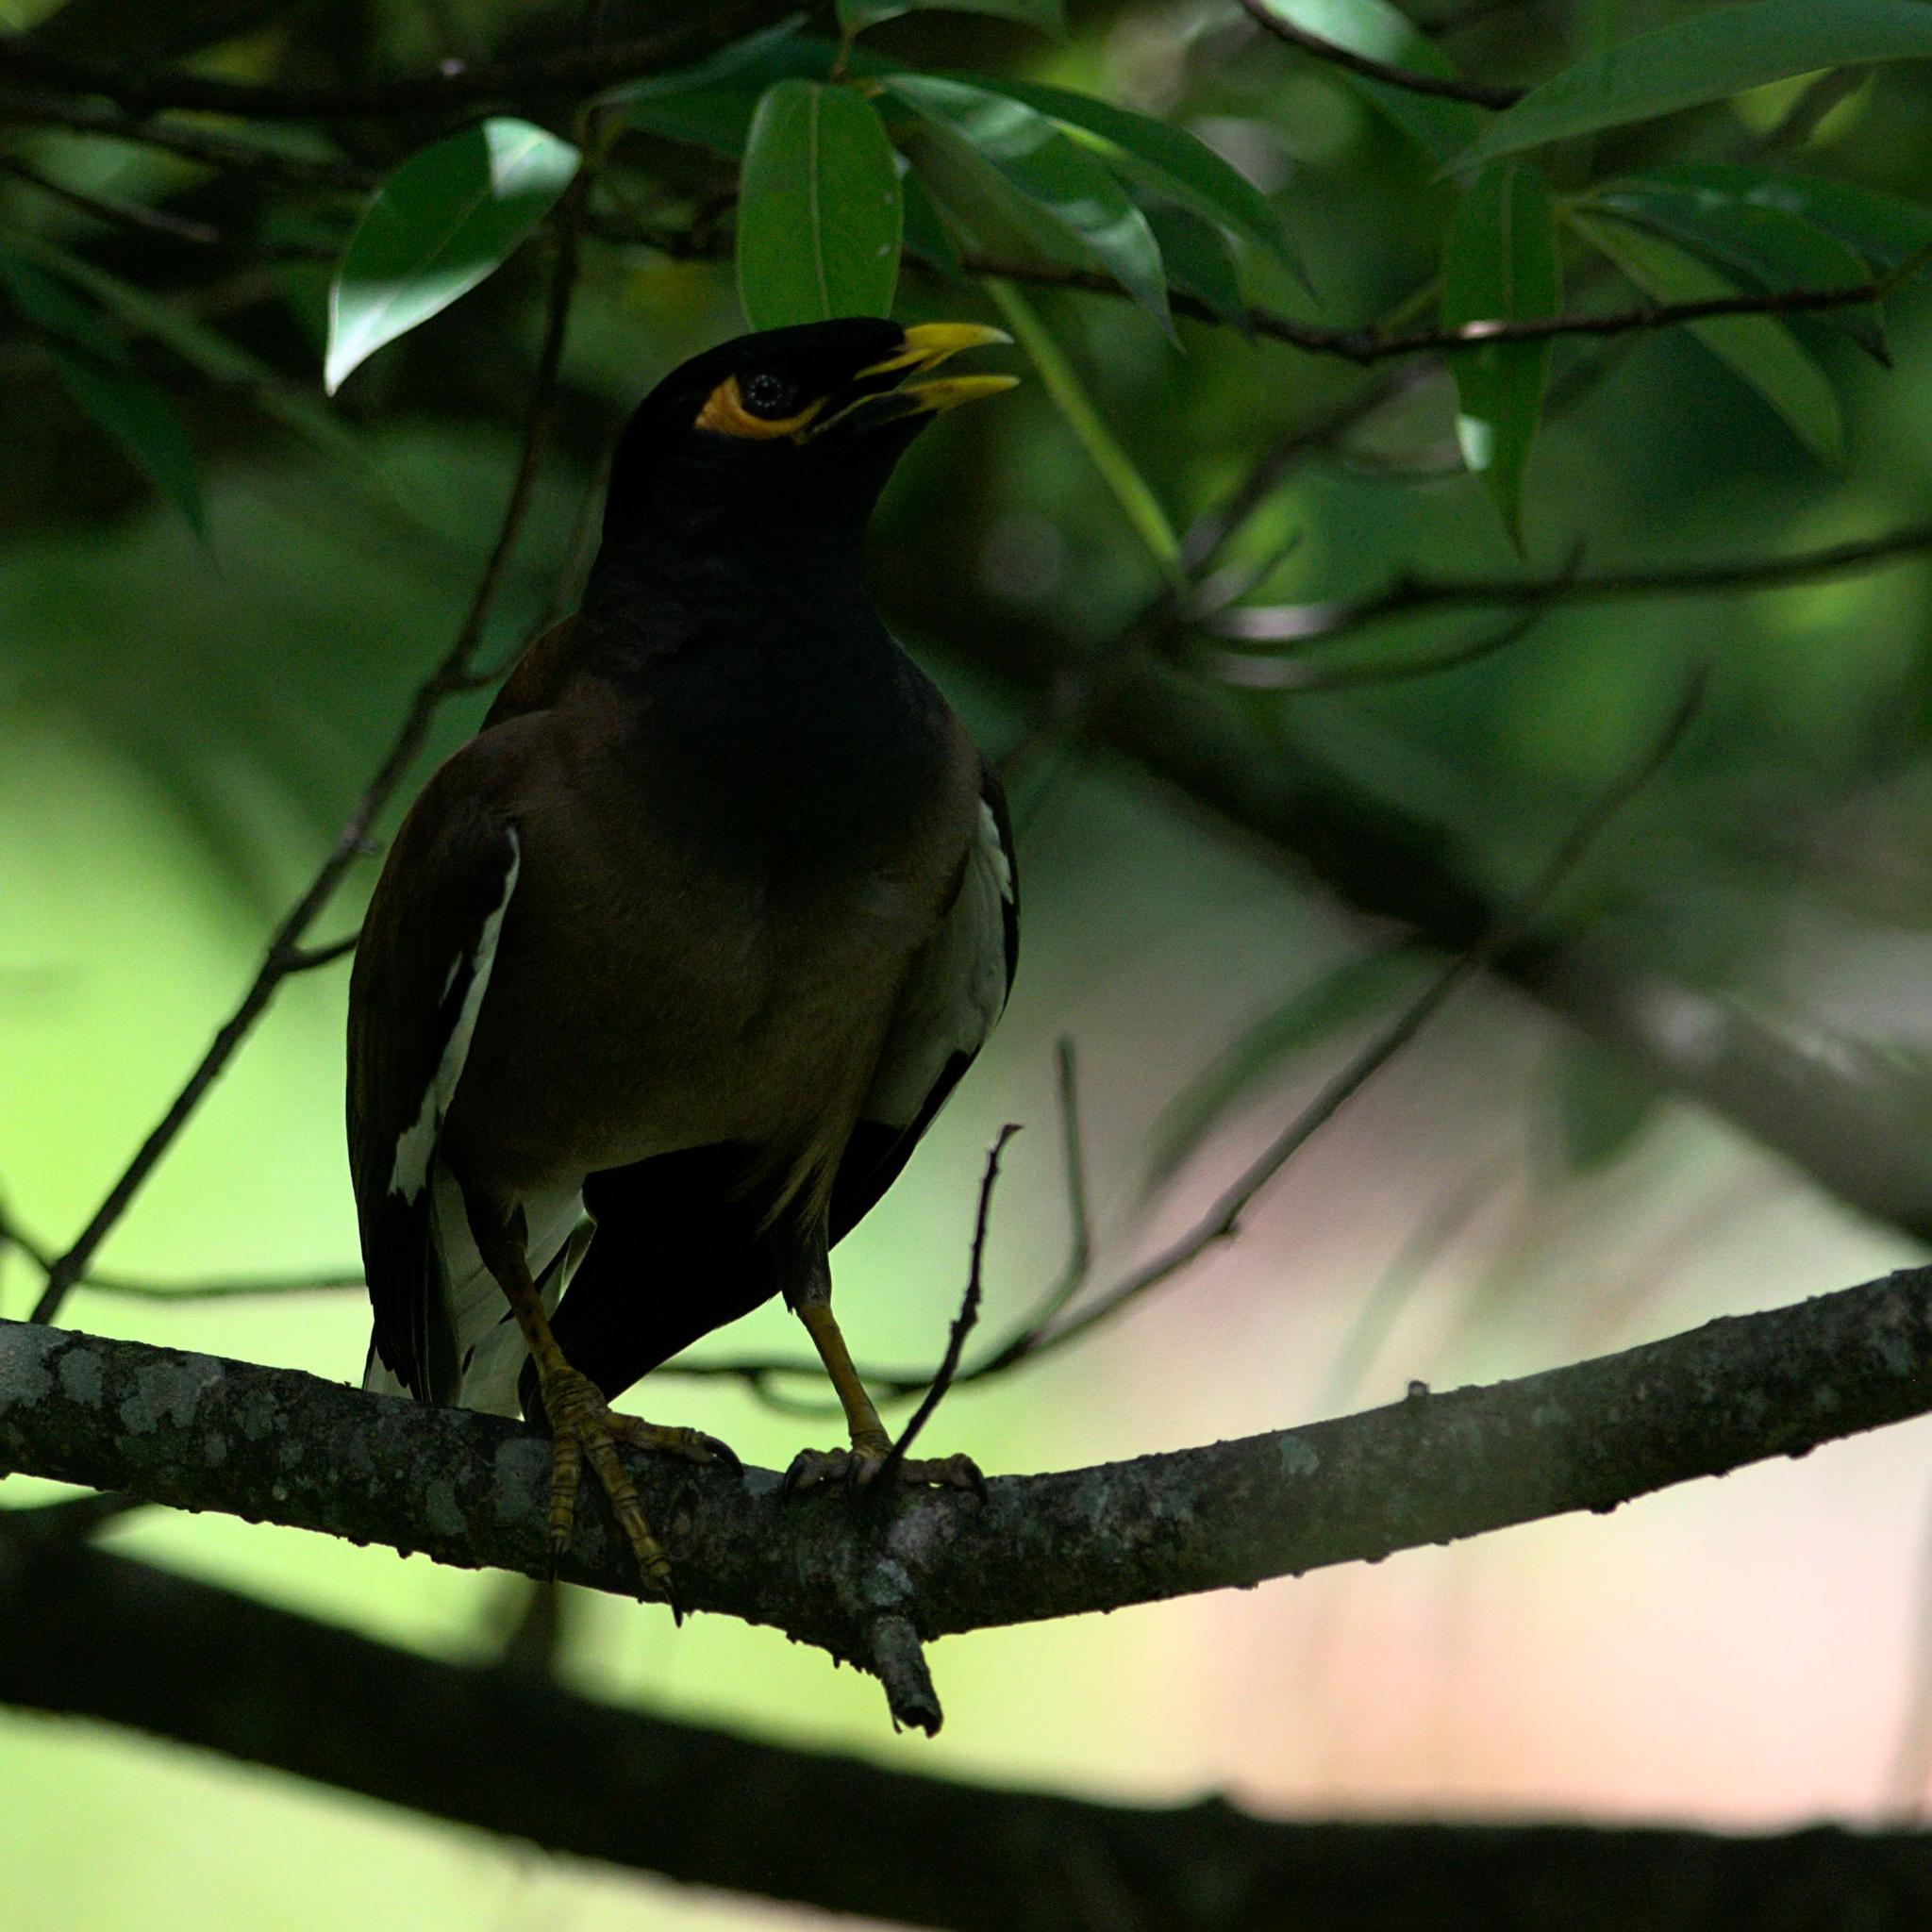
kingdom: Animalia
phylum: Chordata
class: Aves
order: Passeriformes
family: Sturnidae
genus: Acridotheres
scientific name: Acridotheres tristis
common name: Common myna
